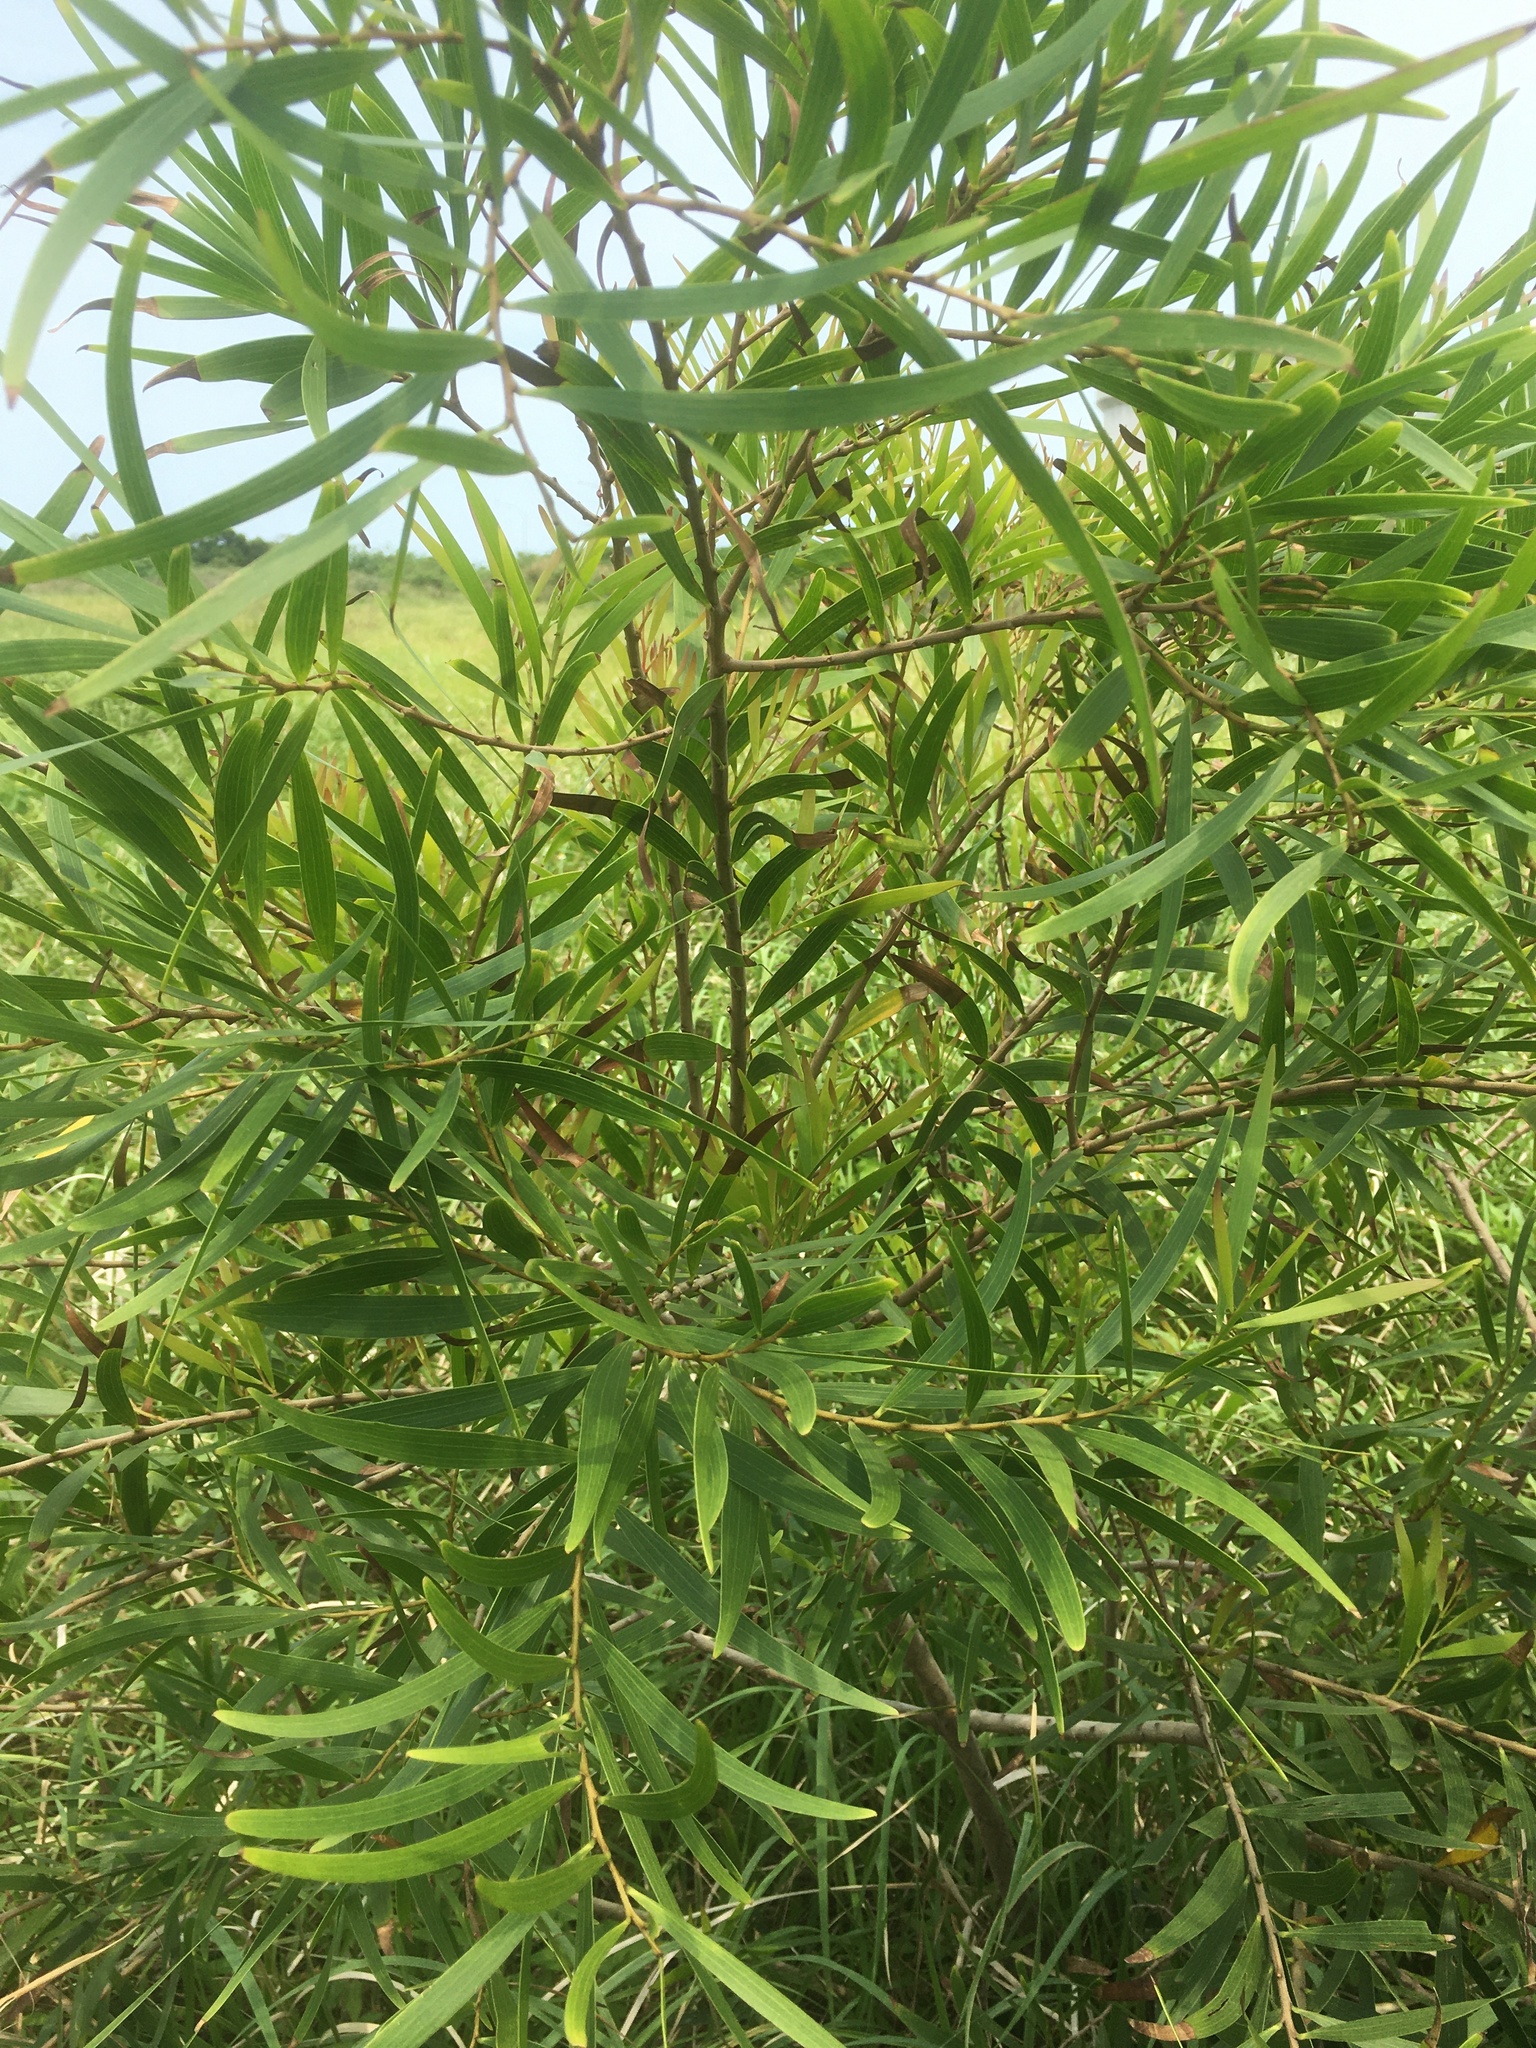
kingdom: Plantae
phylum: Tracheophyta
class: Magnoliopsida
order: Fabales
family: Fabaceae
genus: Acacia
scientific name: Acacia confusa
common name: Formosan koa
